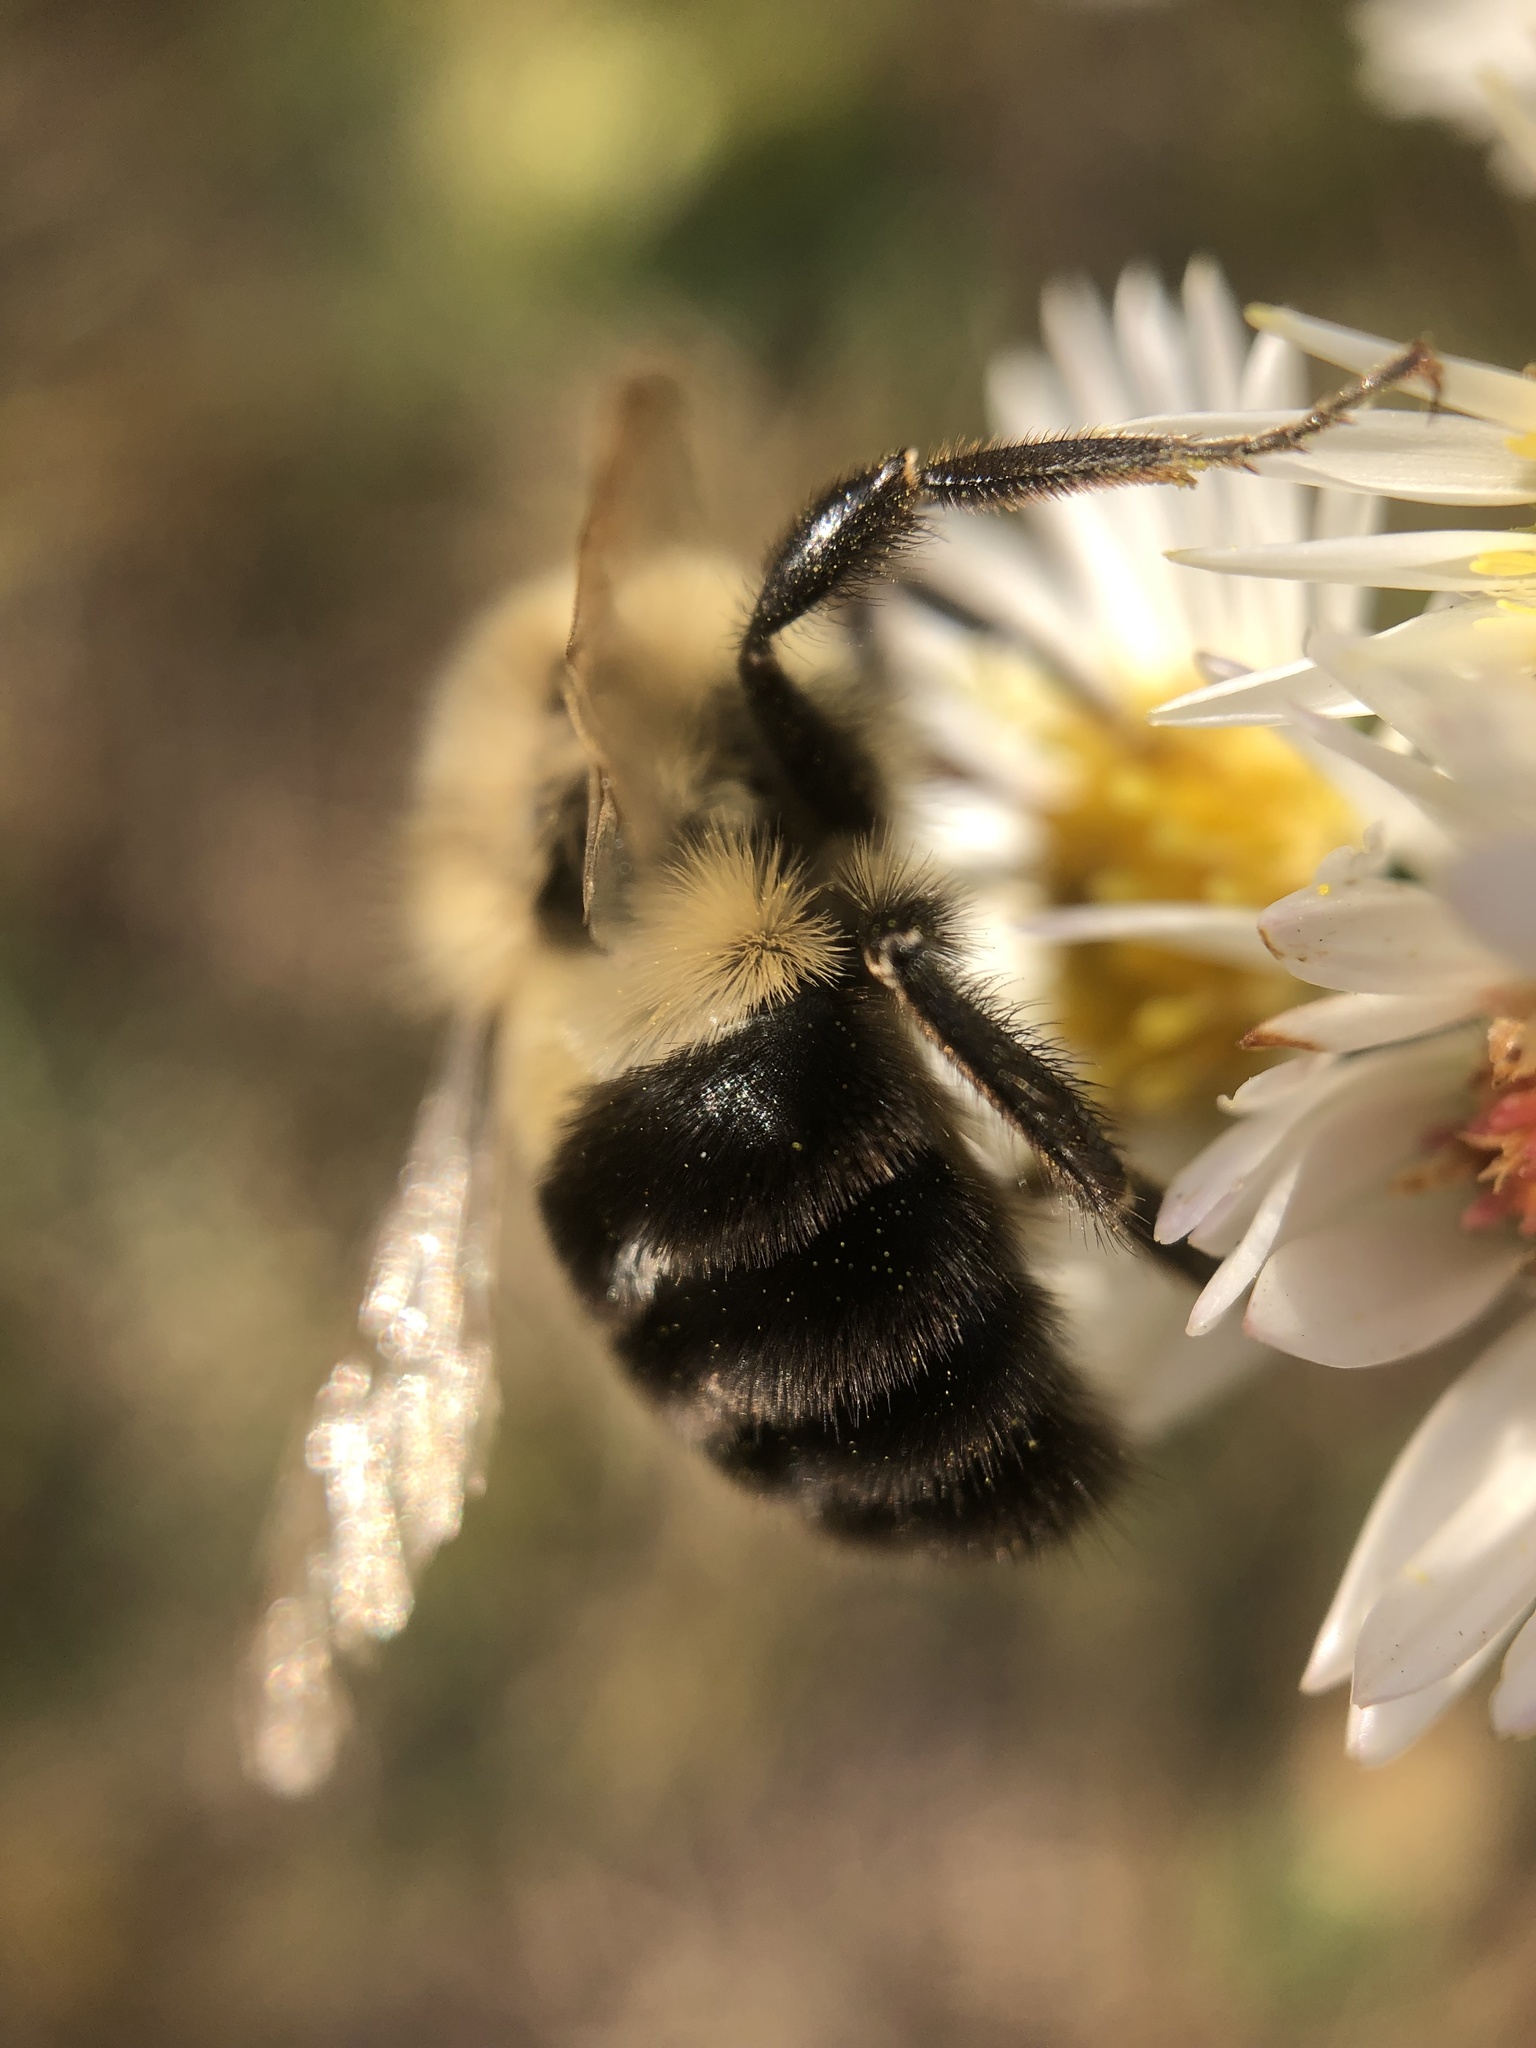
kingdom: Animalia
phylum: Arthropoda
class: Insecta
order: Hymenoptera
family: Apidae
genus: Bombus
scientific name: Bombus impatiens
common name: Common eastern bumble bee
